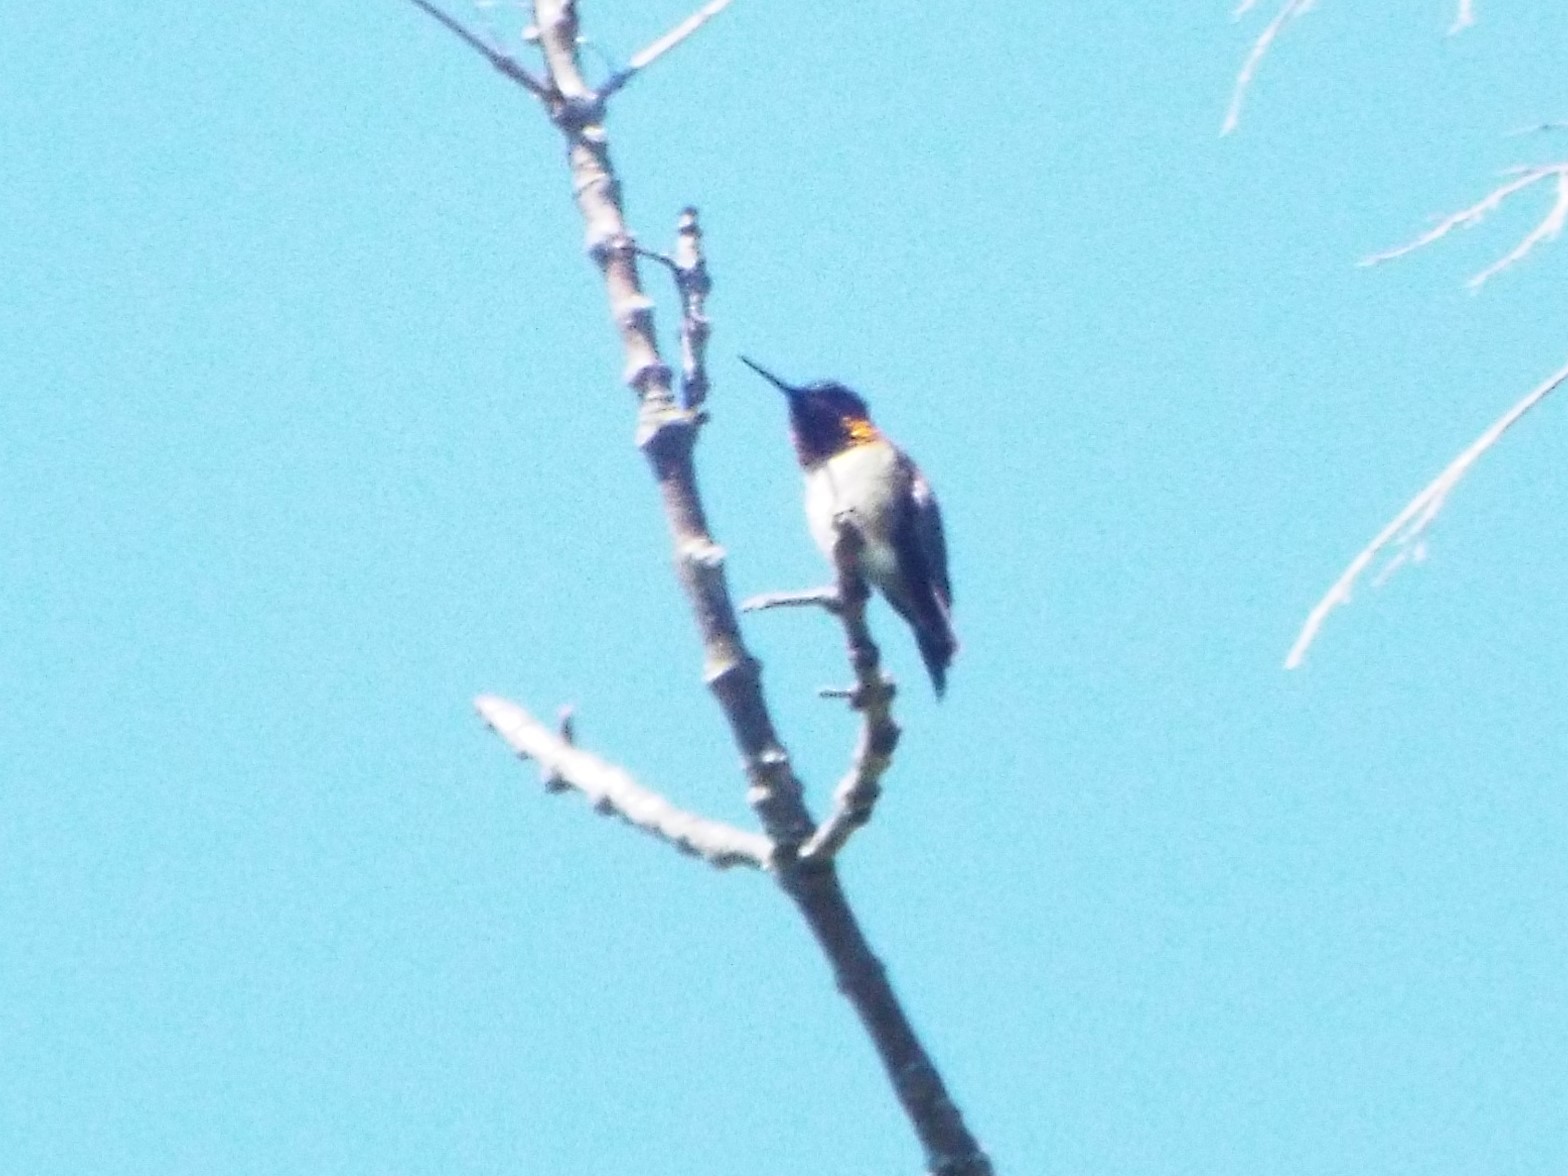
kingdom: Animalia
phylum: Chordata
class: Aves
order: Apodiformes
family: Trochilidae
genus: Archilochus
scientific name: Archilochus colubris
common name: Ruby-throated hummingbird
